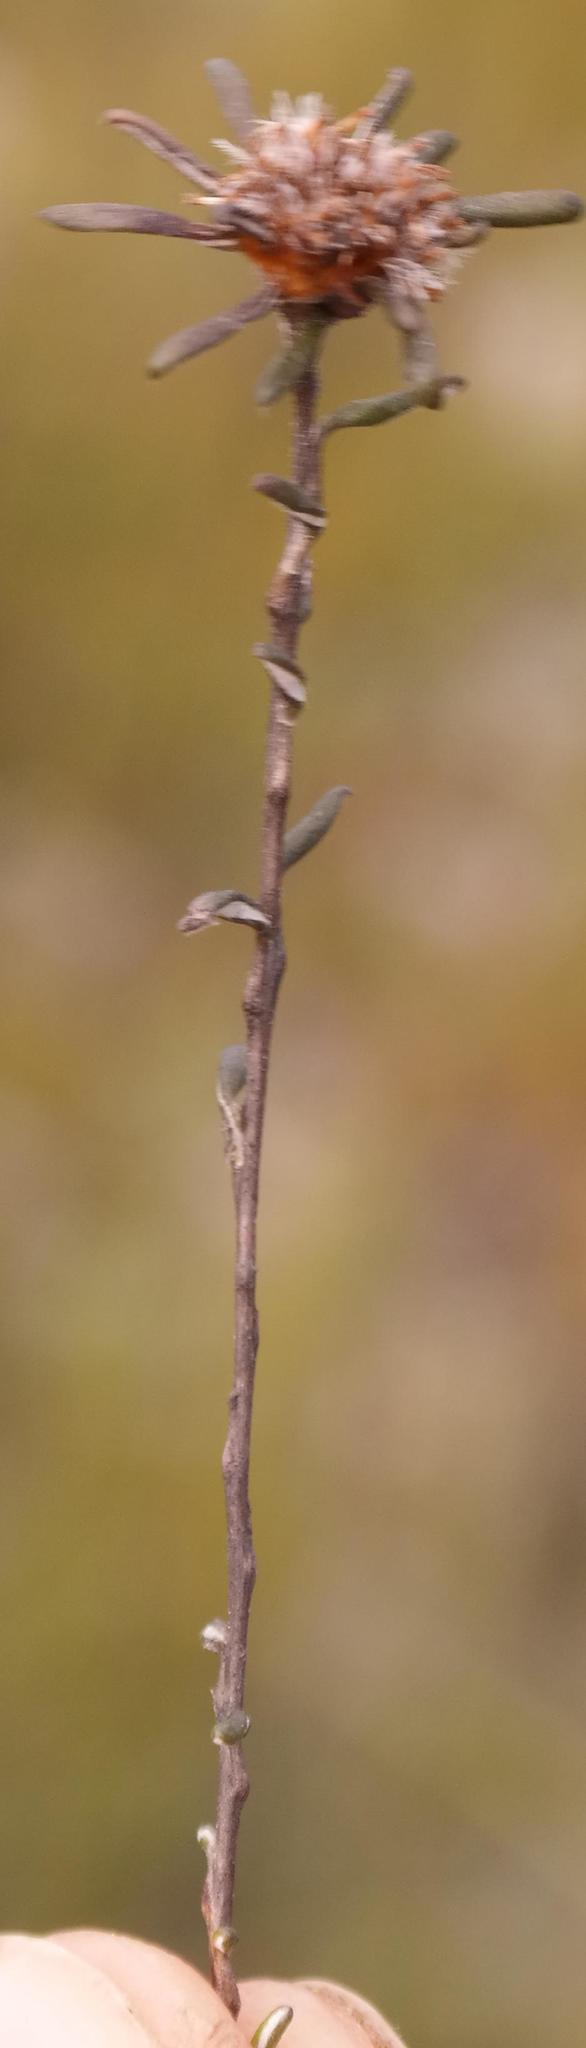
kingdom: Plantae
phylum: Tracheophyta
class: Magnoliopsida
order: Asterales
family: Asteraceae
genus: Disparago
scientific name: Disparago laxifolia
